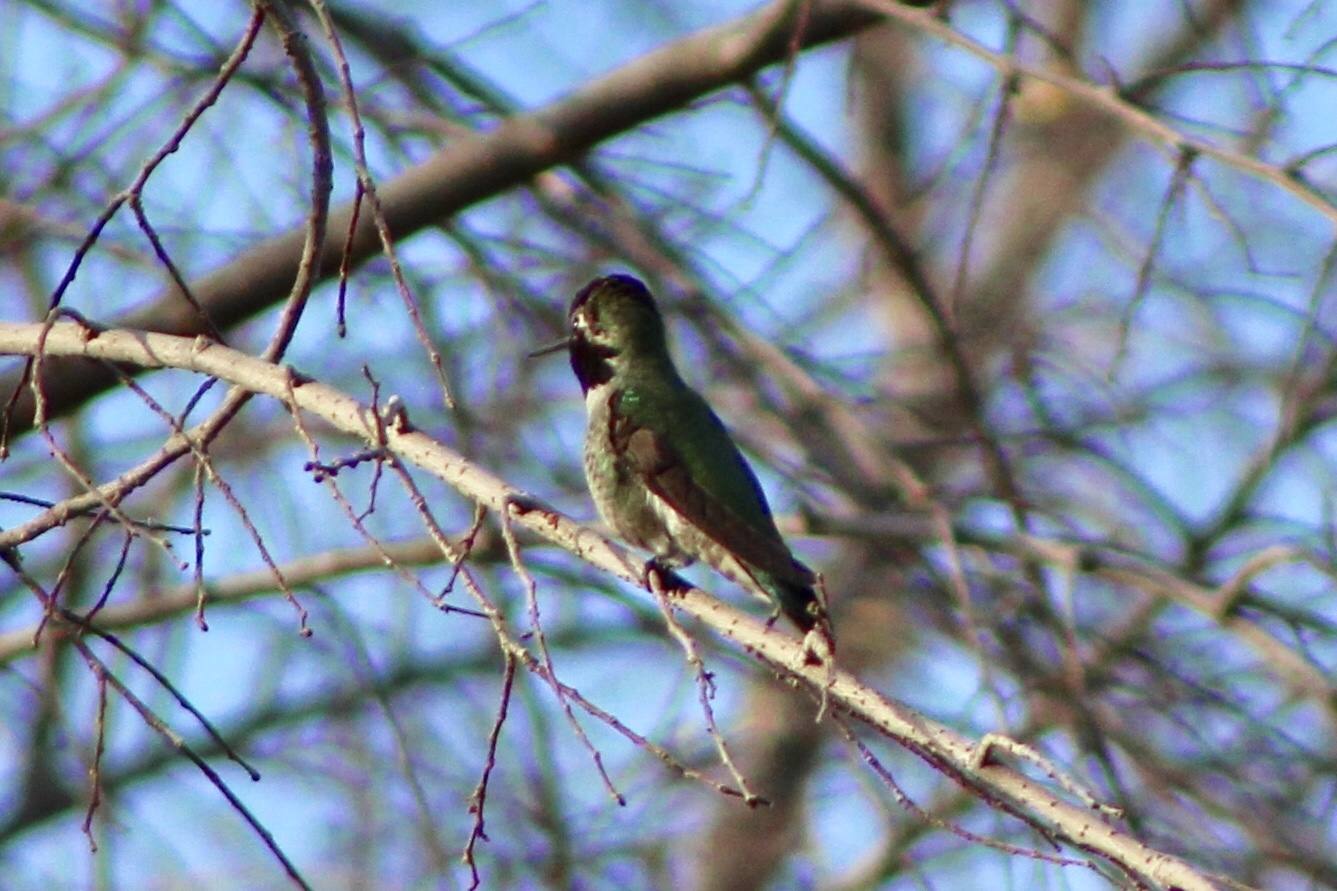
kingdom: Animalia
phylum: Chordata
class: Aves
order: Apodiformes
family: Trochilidae
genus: Calypte
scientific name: Calypte anna
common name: Anna's hummingbird
